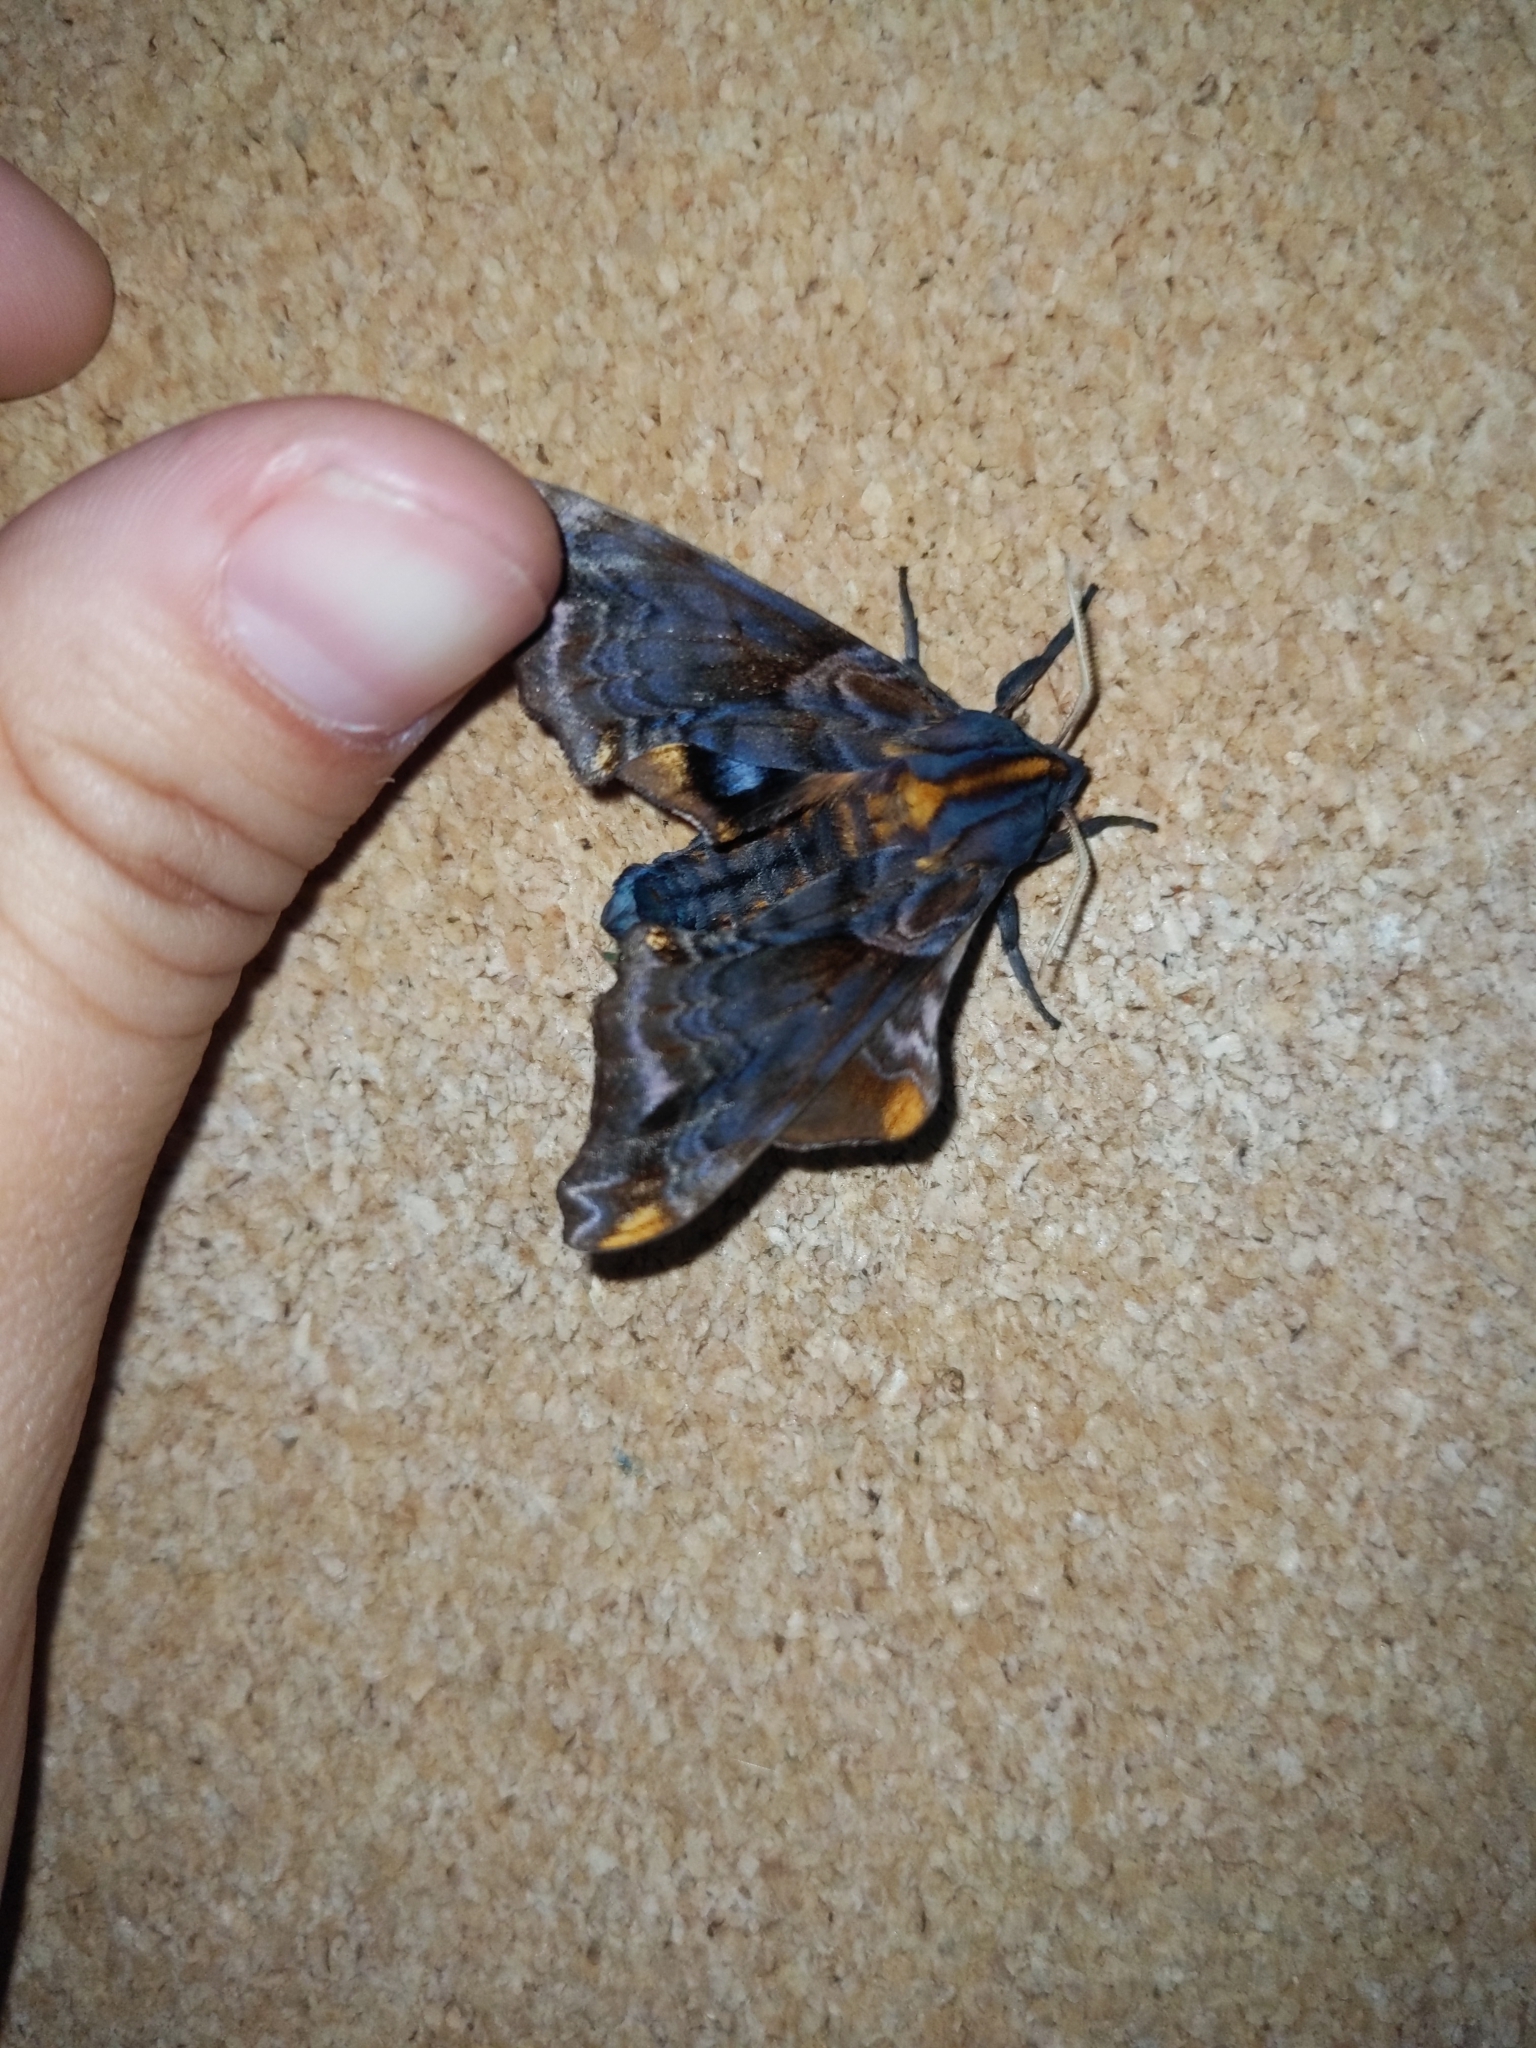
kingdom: Animalia
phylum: Arthropoda
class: Insecta
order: Lepidoptera
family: Sphingidae
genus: Paonias
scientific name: Paonias myops
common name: Small-eyed sphinx
